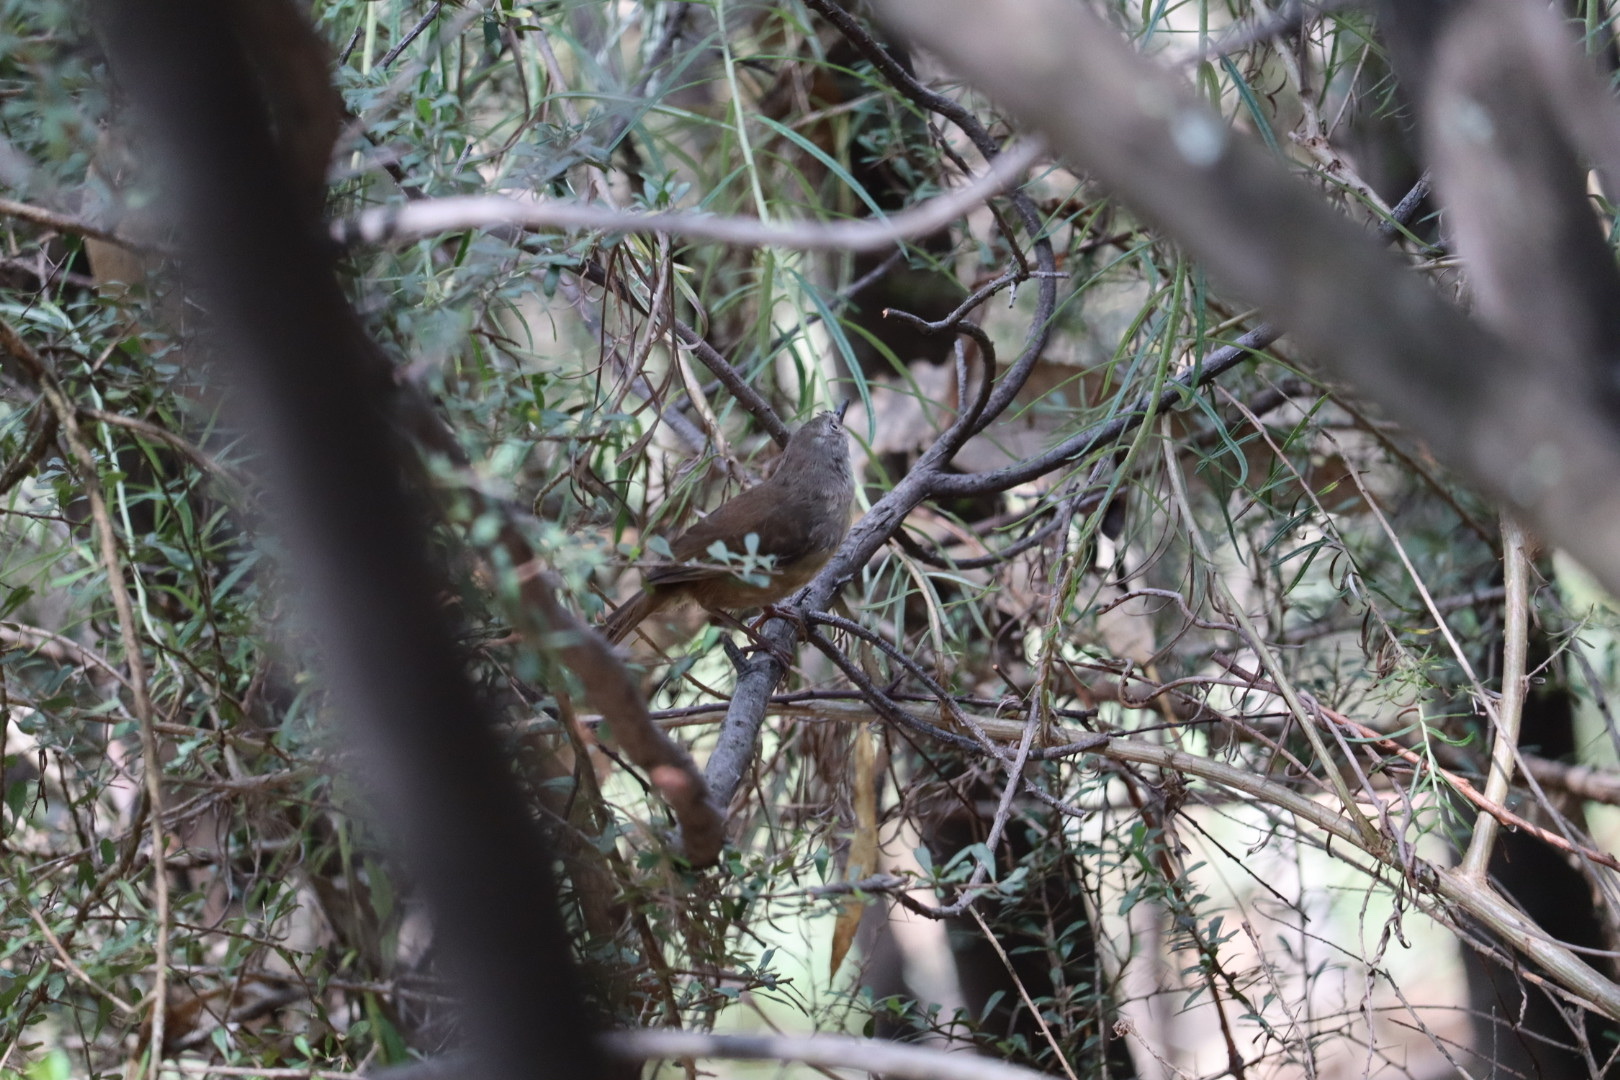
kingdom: Animalia
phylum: Chordata
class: Aves
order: Passeriformes
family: Acanthizidae
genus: Sericornis
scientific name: Sericornis frontalis
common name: White-browed scrubwren
